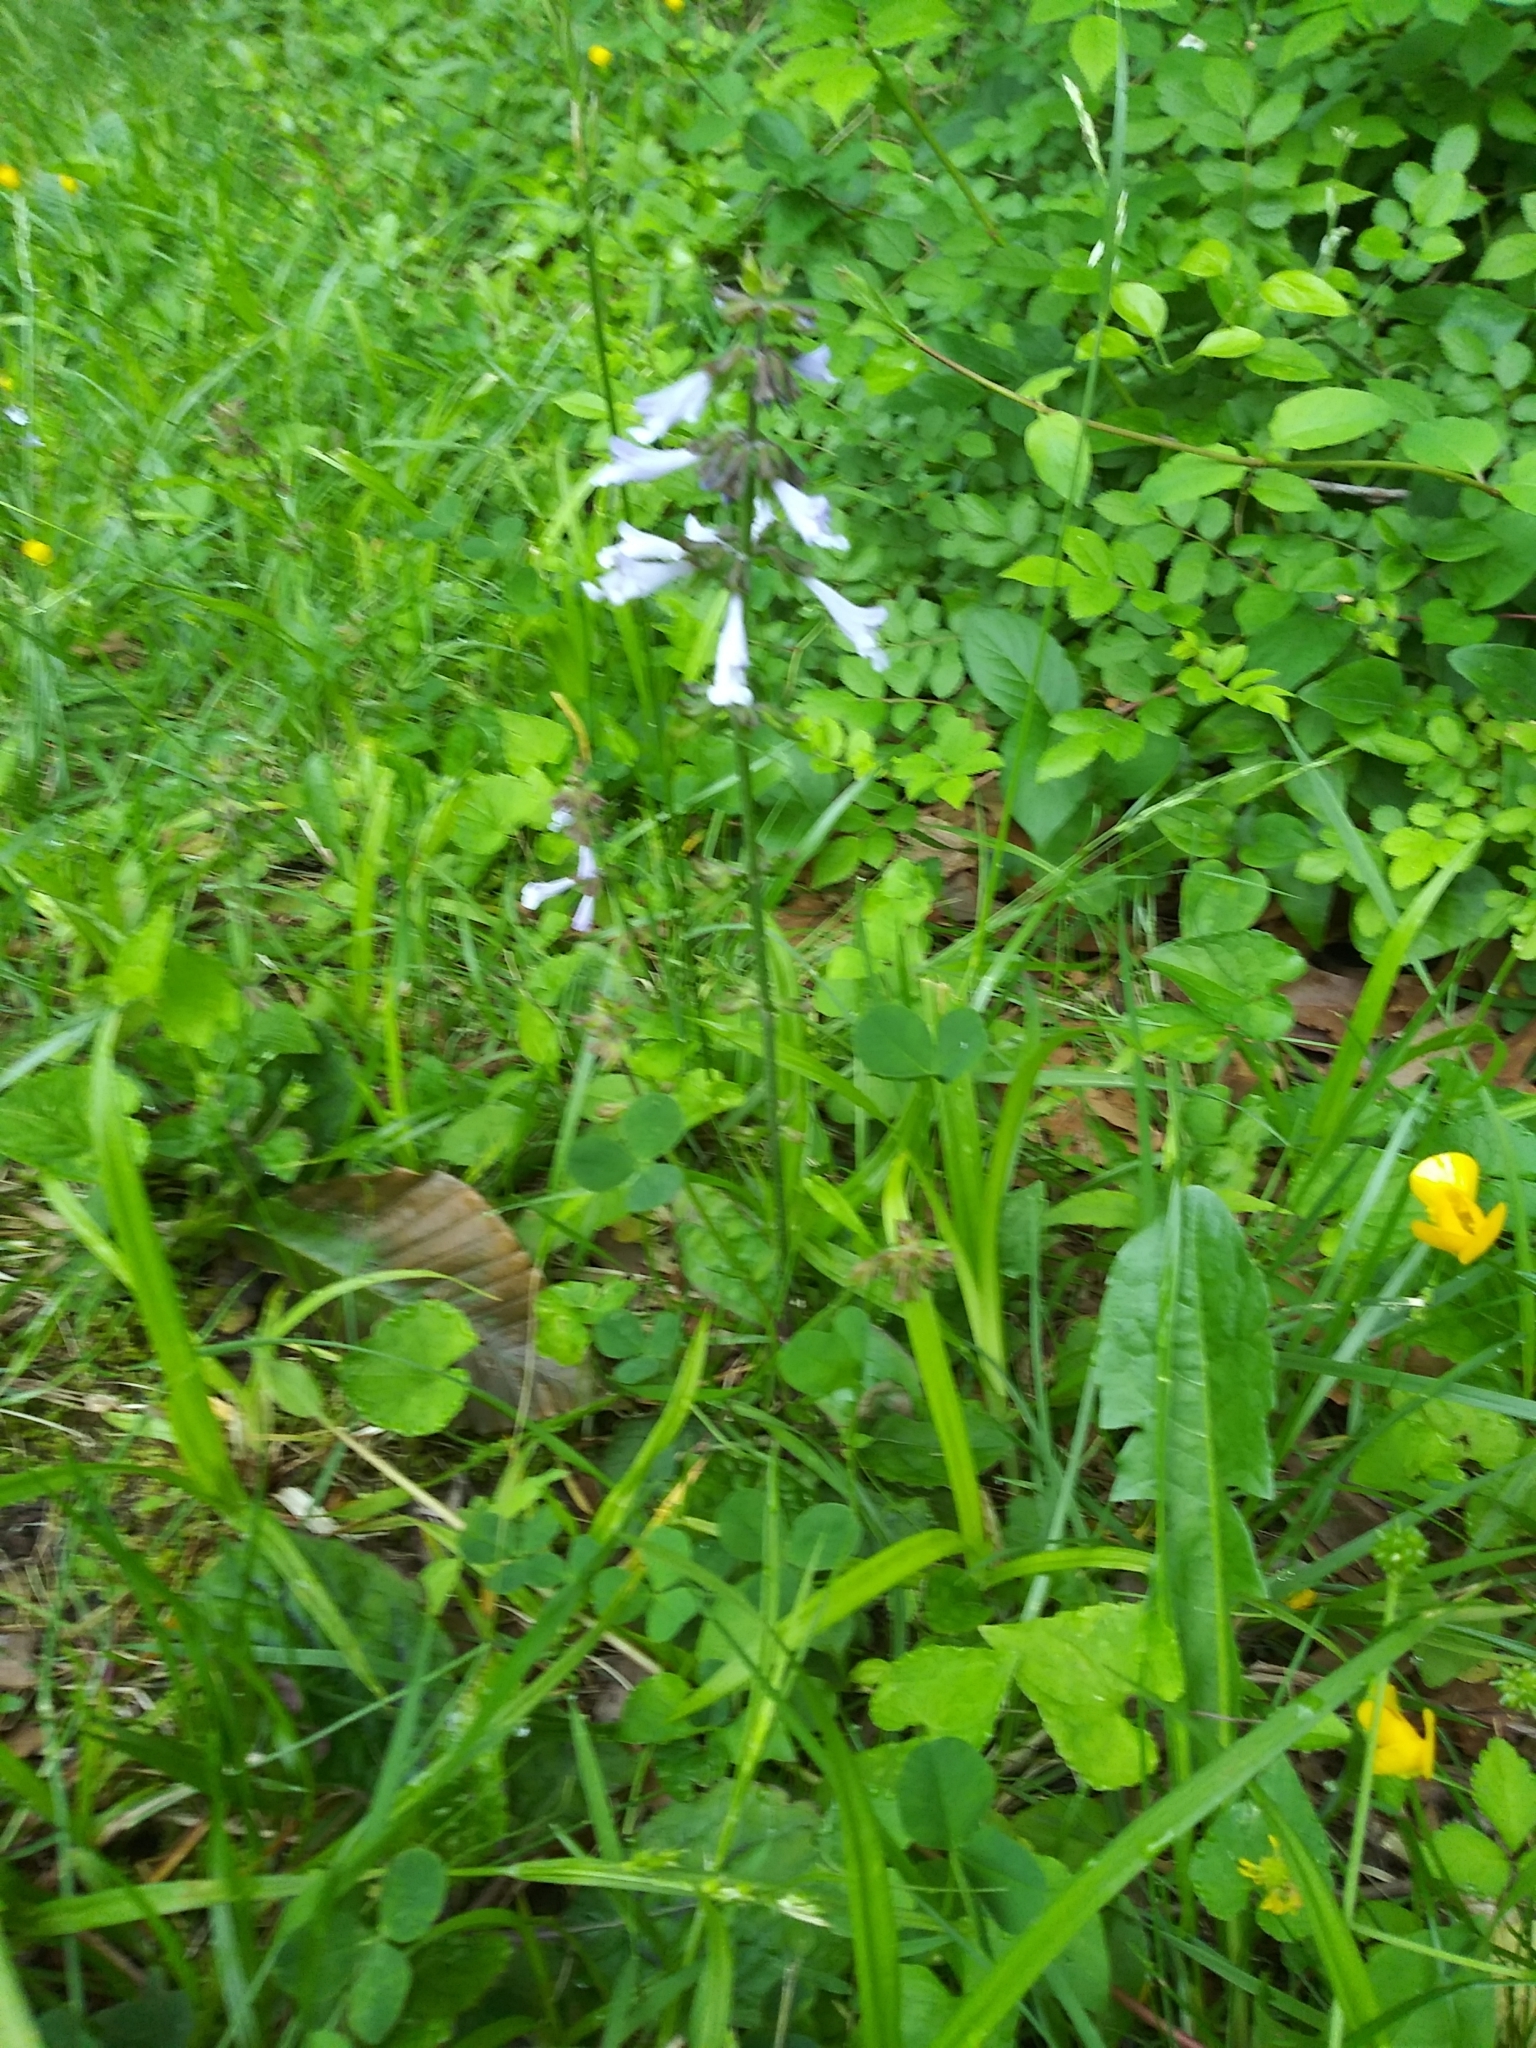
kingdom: Plantae
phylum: Tracheophyta
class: Magnoliopsida
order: Lamiales
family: Lamiaceae
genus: Salvia
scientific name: Salvia lyrata
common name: Cancerweed
